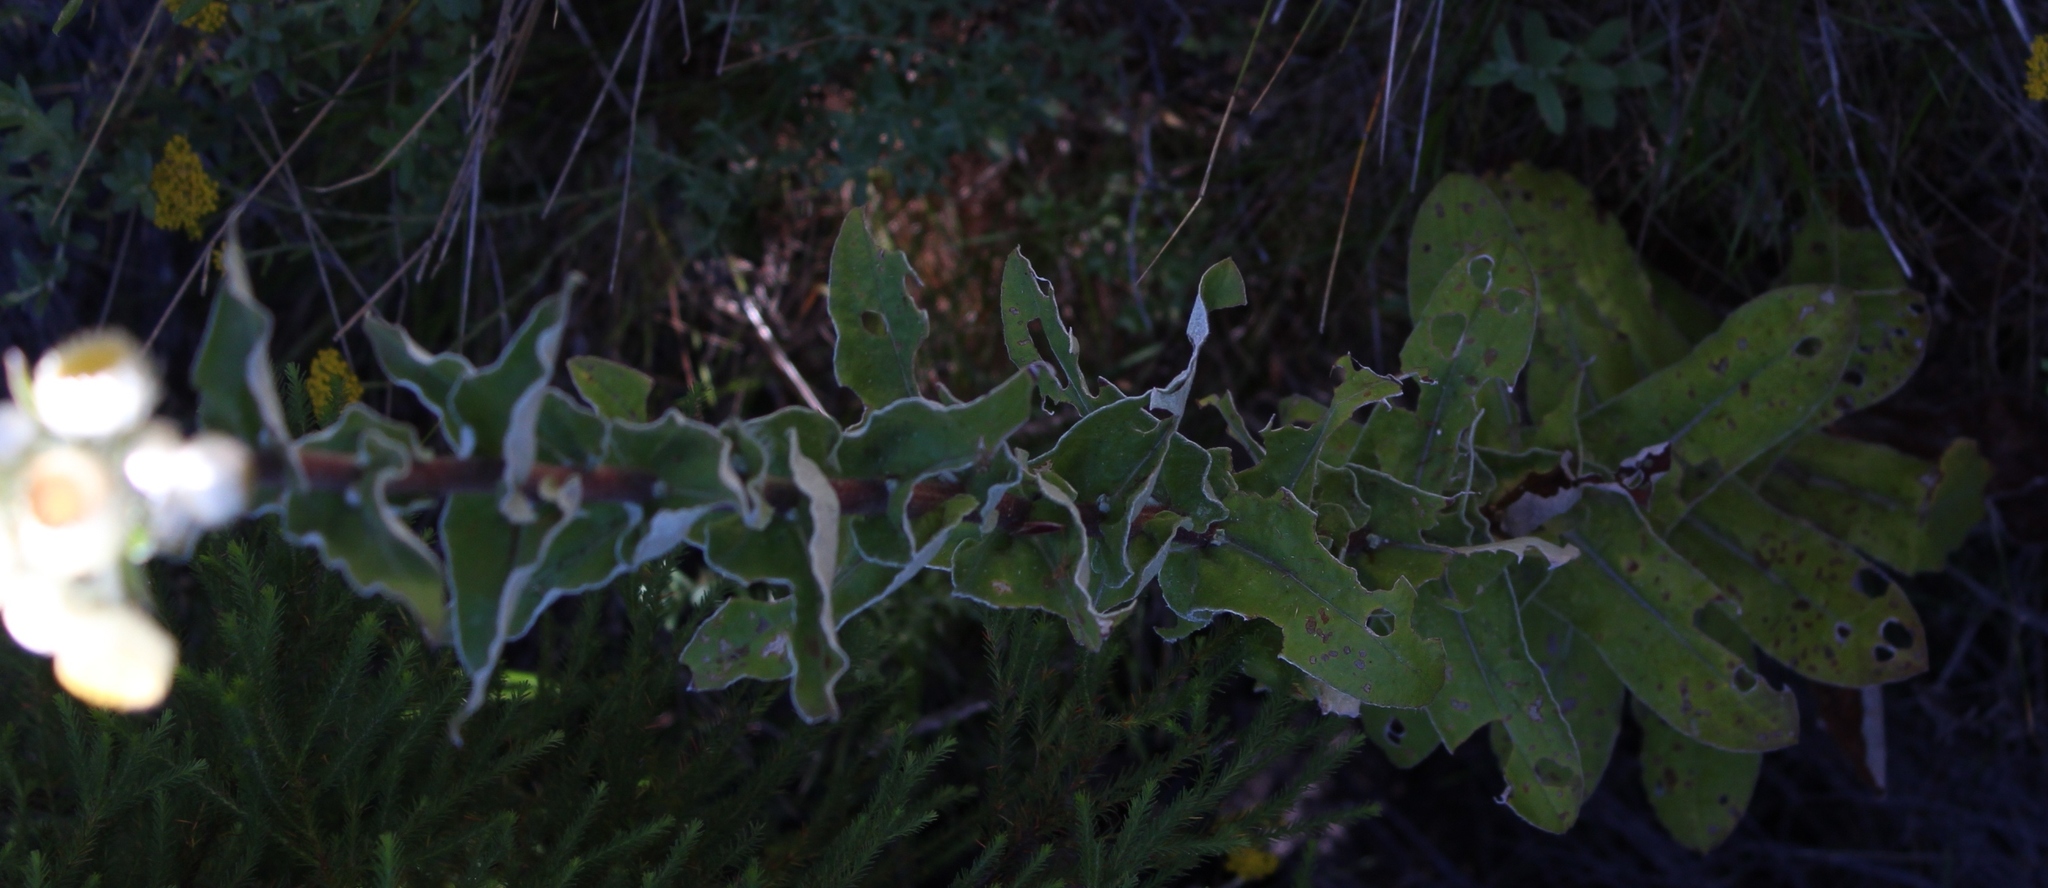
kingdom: Plantae
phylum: Tracheophyta
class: Magnoliopsida
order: Asterales
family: Asteraceae
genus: Helichrysum
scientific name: Helichrysum foetidum
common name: Stinking everlasting
